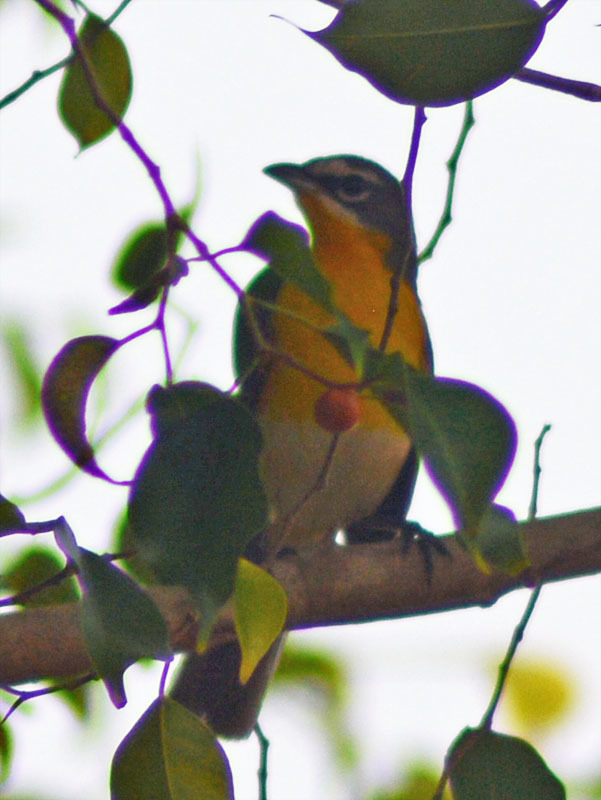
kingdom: Animalia
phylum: Chordata
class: Aves
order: Passeriformes
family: Parulidae
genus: Icteria
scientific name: Icteria virens
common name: Yellow-breasted chat
